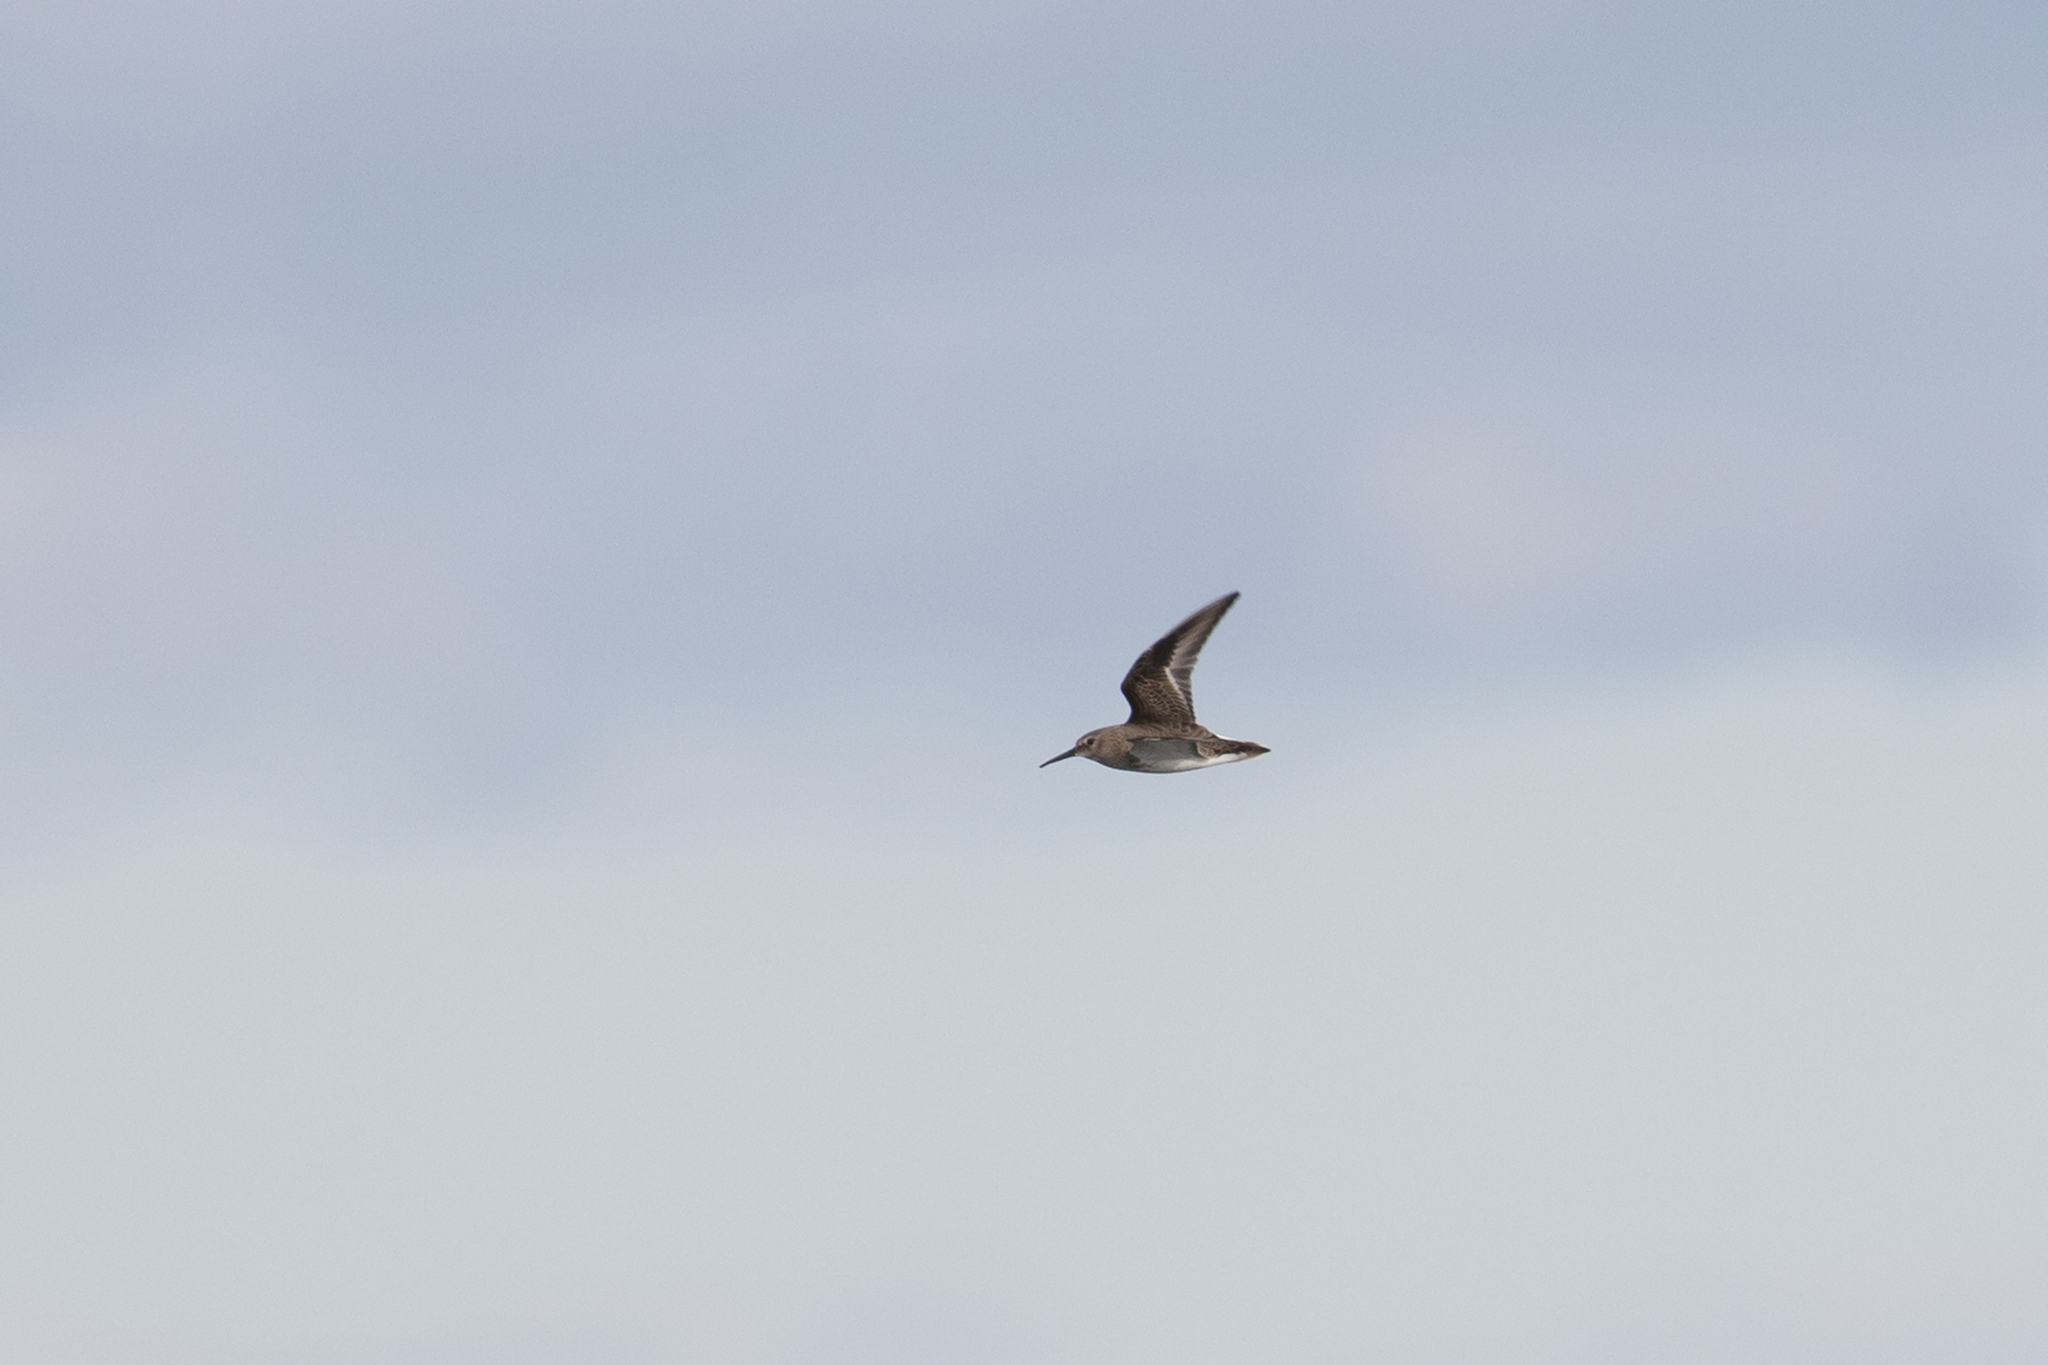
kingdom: Animalia
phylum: Chordata
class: Aves
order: Charadriiformes
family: Scolopacidae
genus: Calidris
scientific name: Calidris alpina
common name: Dunlin
